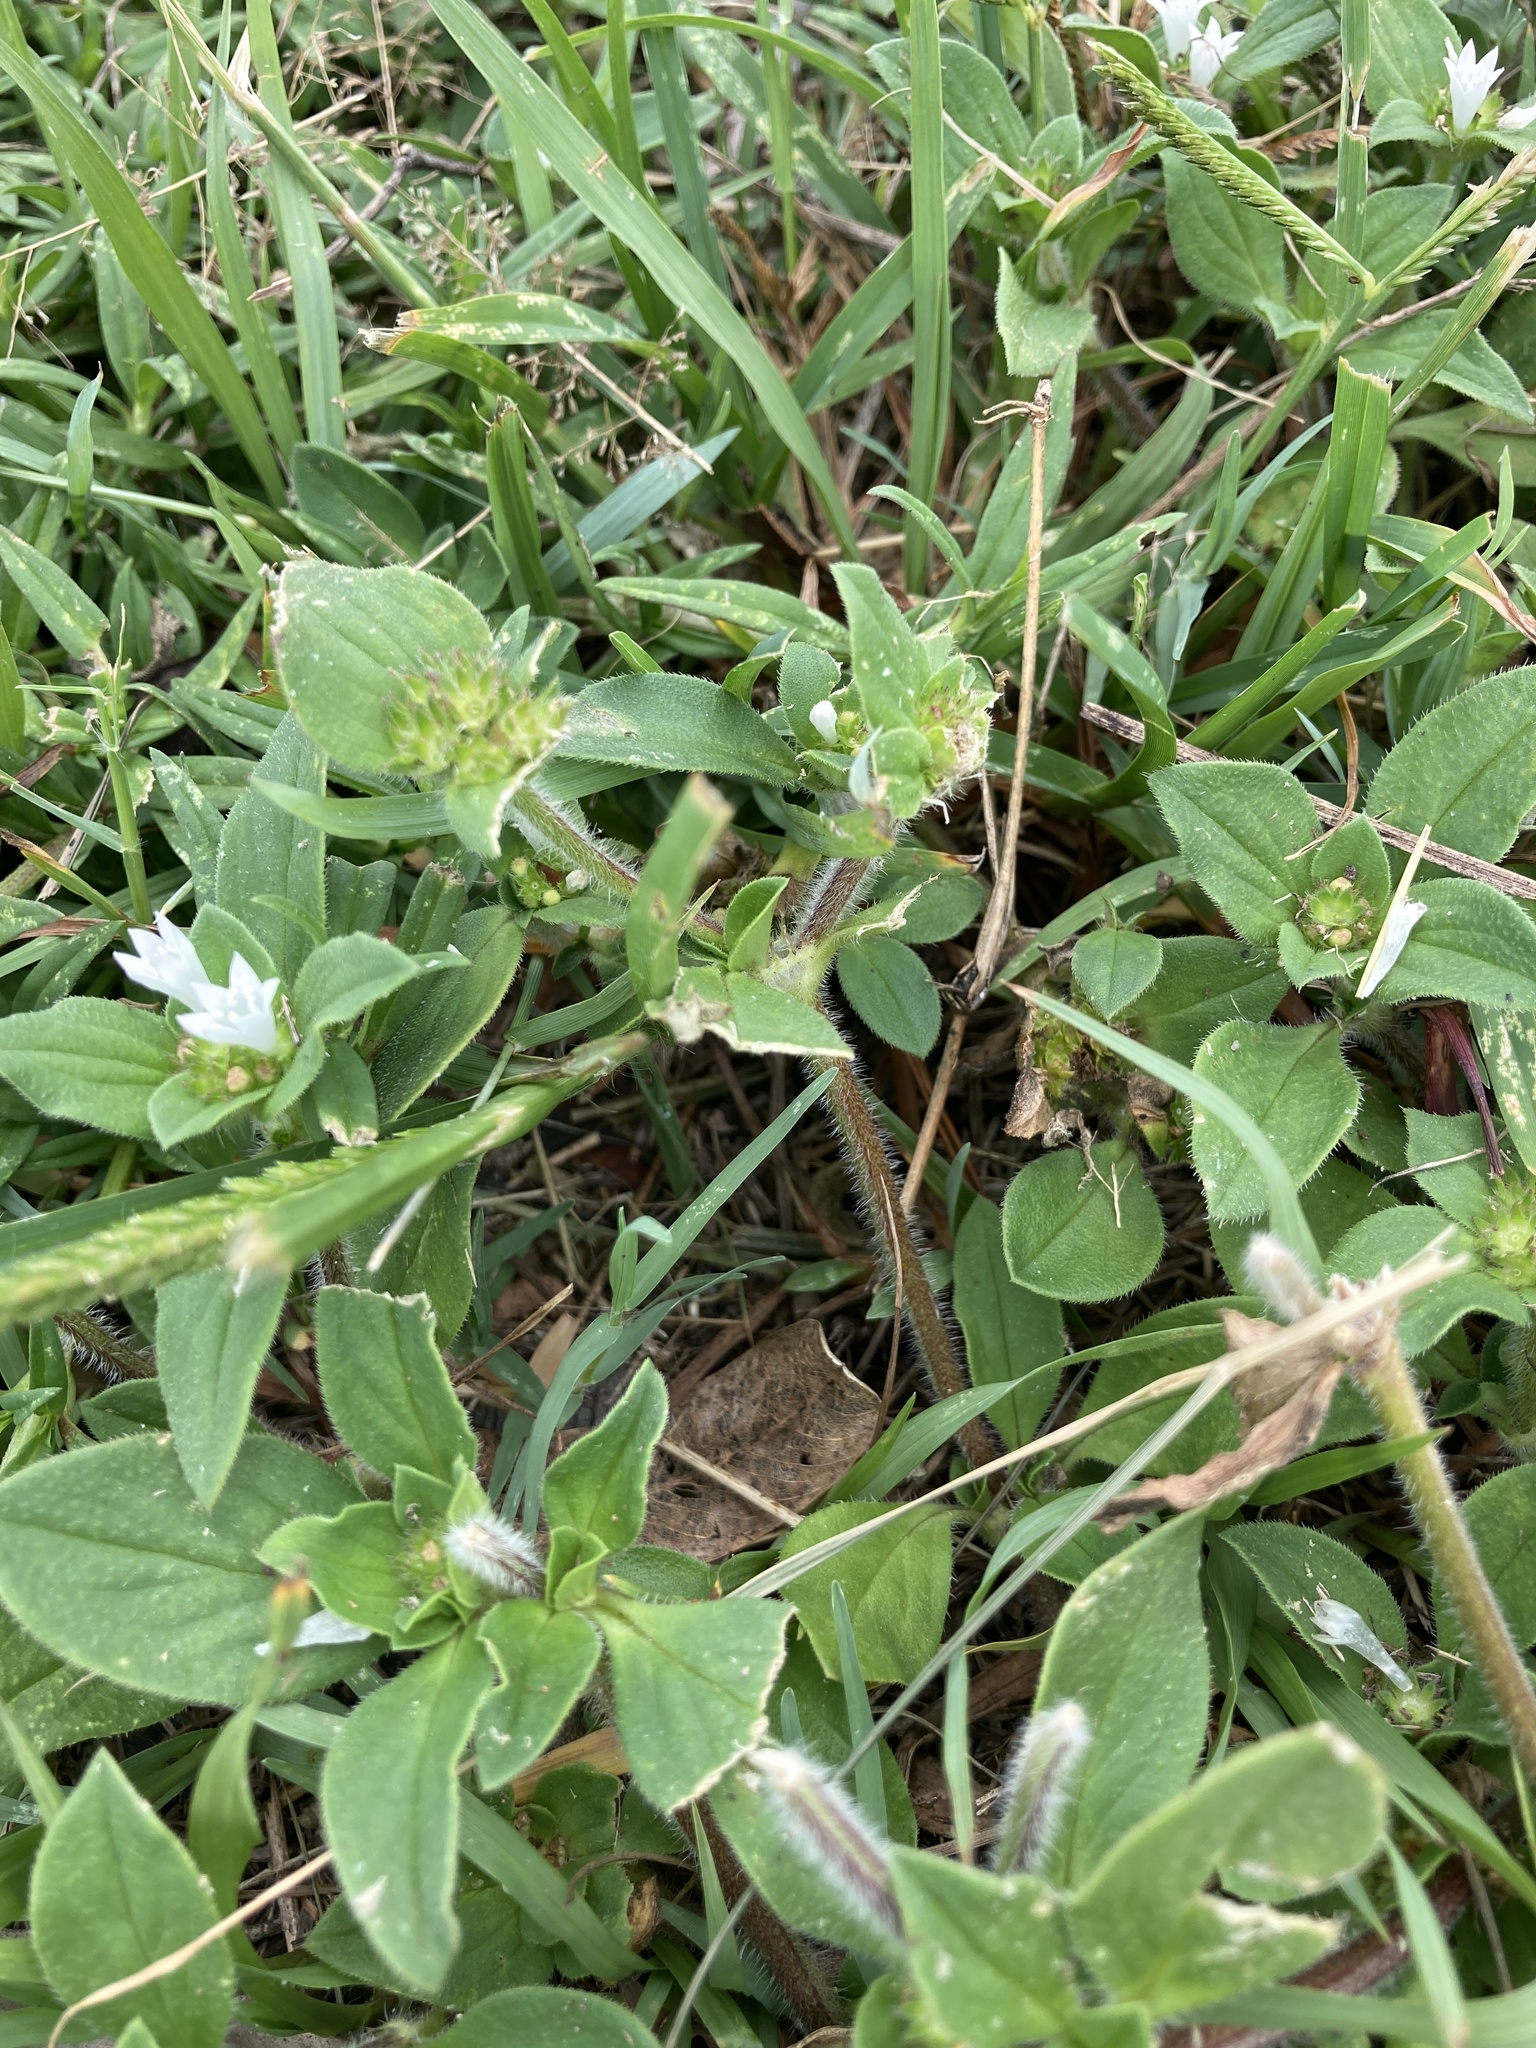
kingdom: Plantae
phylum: Tracheophyta
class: Magnoliopsida
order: Gentianales
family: Rubiaceae
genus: Richardia
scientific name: Richardia brasiliensis
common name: Tropical mexican clover
